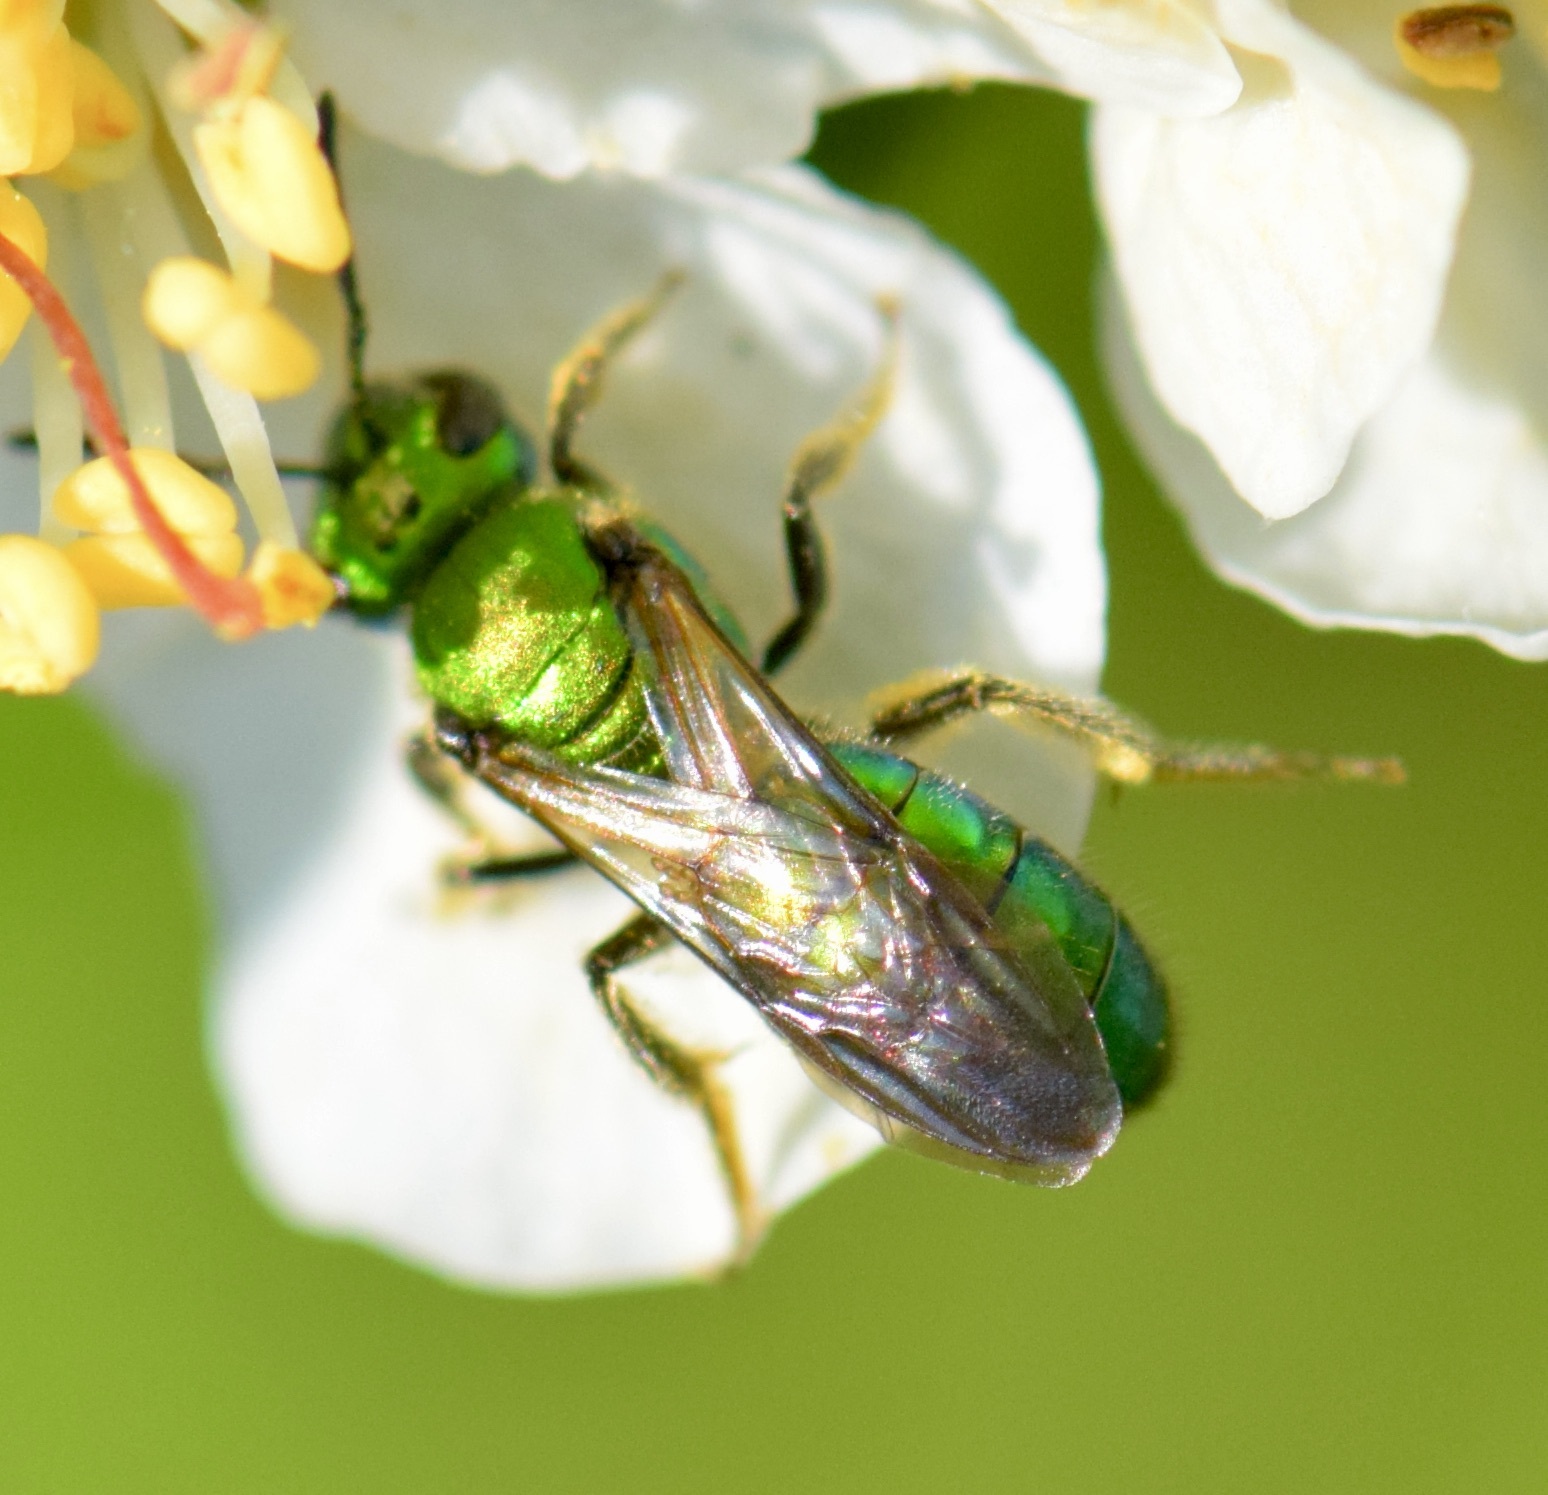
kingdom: Animalia
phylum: Arthropoda
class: Insecta
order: Hymenoptera
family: Halictidae
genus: Augochlora
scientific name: Augochlora pura
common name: Pure green sweat bee
